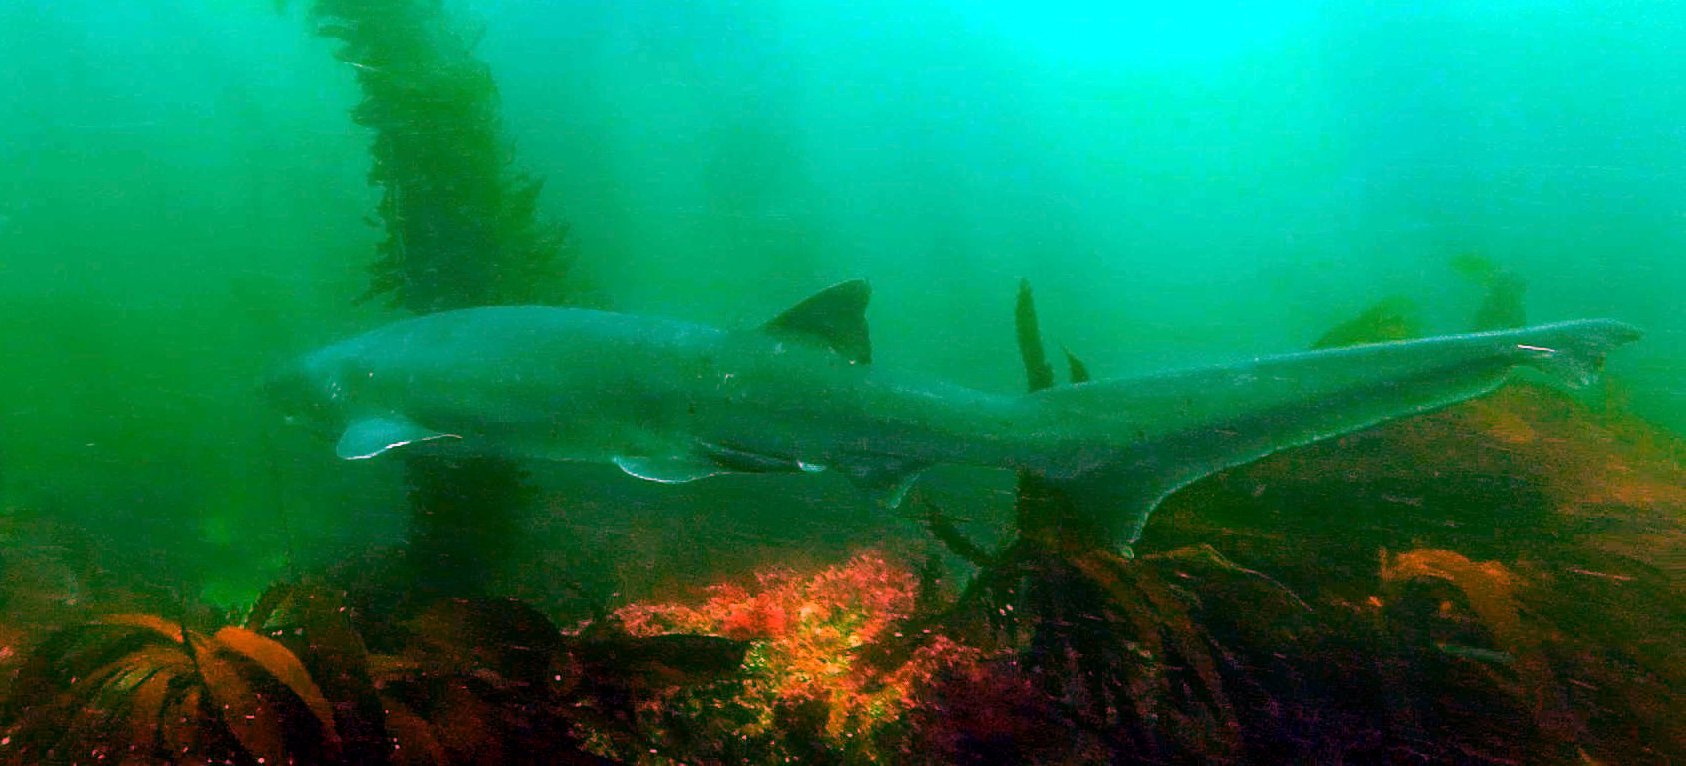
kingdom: Animalia
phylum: Chordata
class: Elasmobranchii
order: Hexanchiformes
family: Hexanchidae
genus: Notorynchus
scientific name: Notorynchus cepedianus
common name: Broadnose sevengill shark
